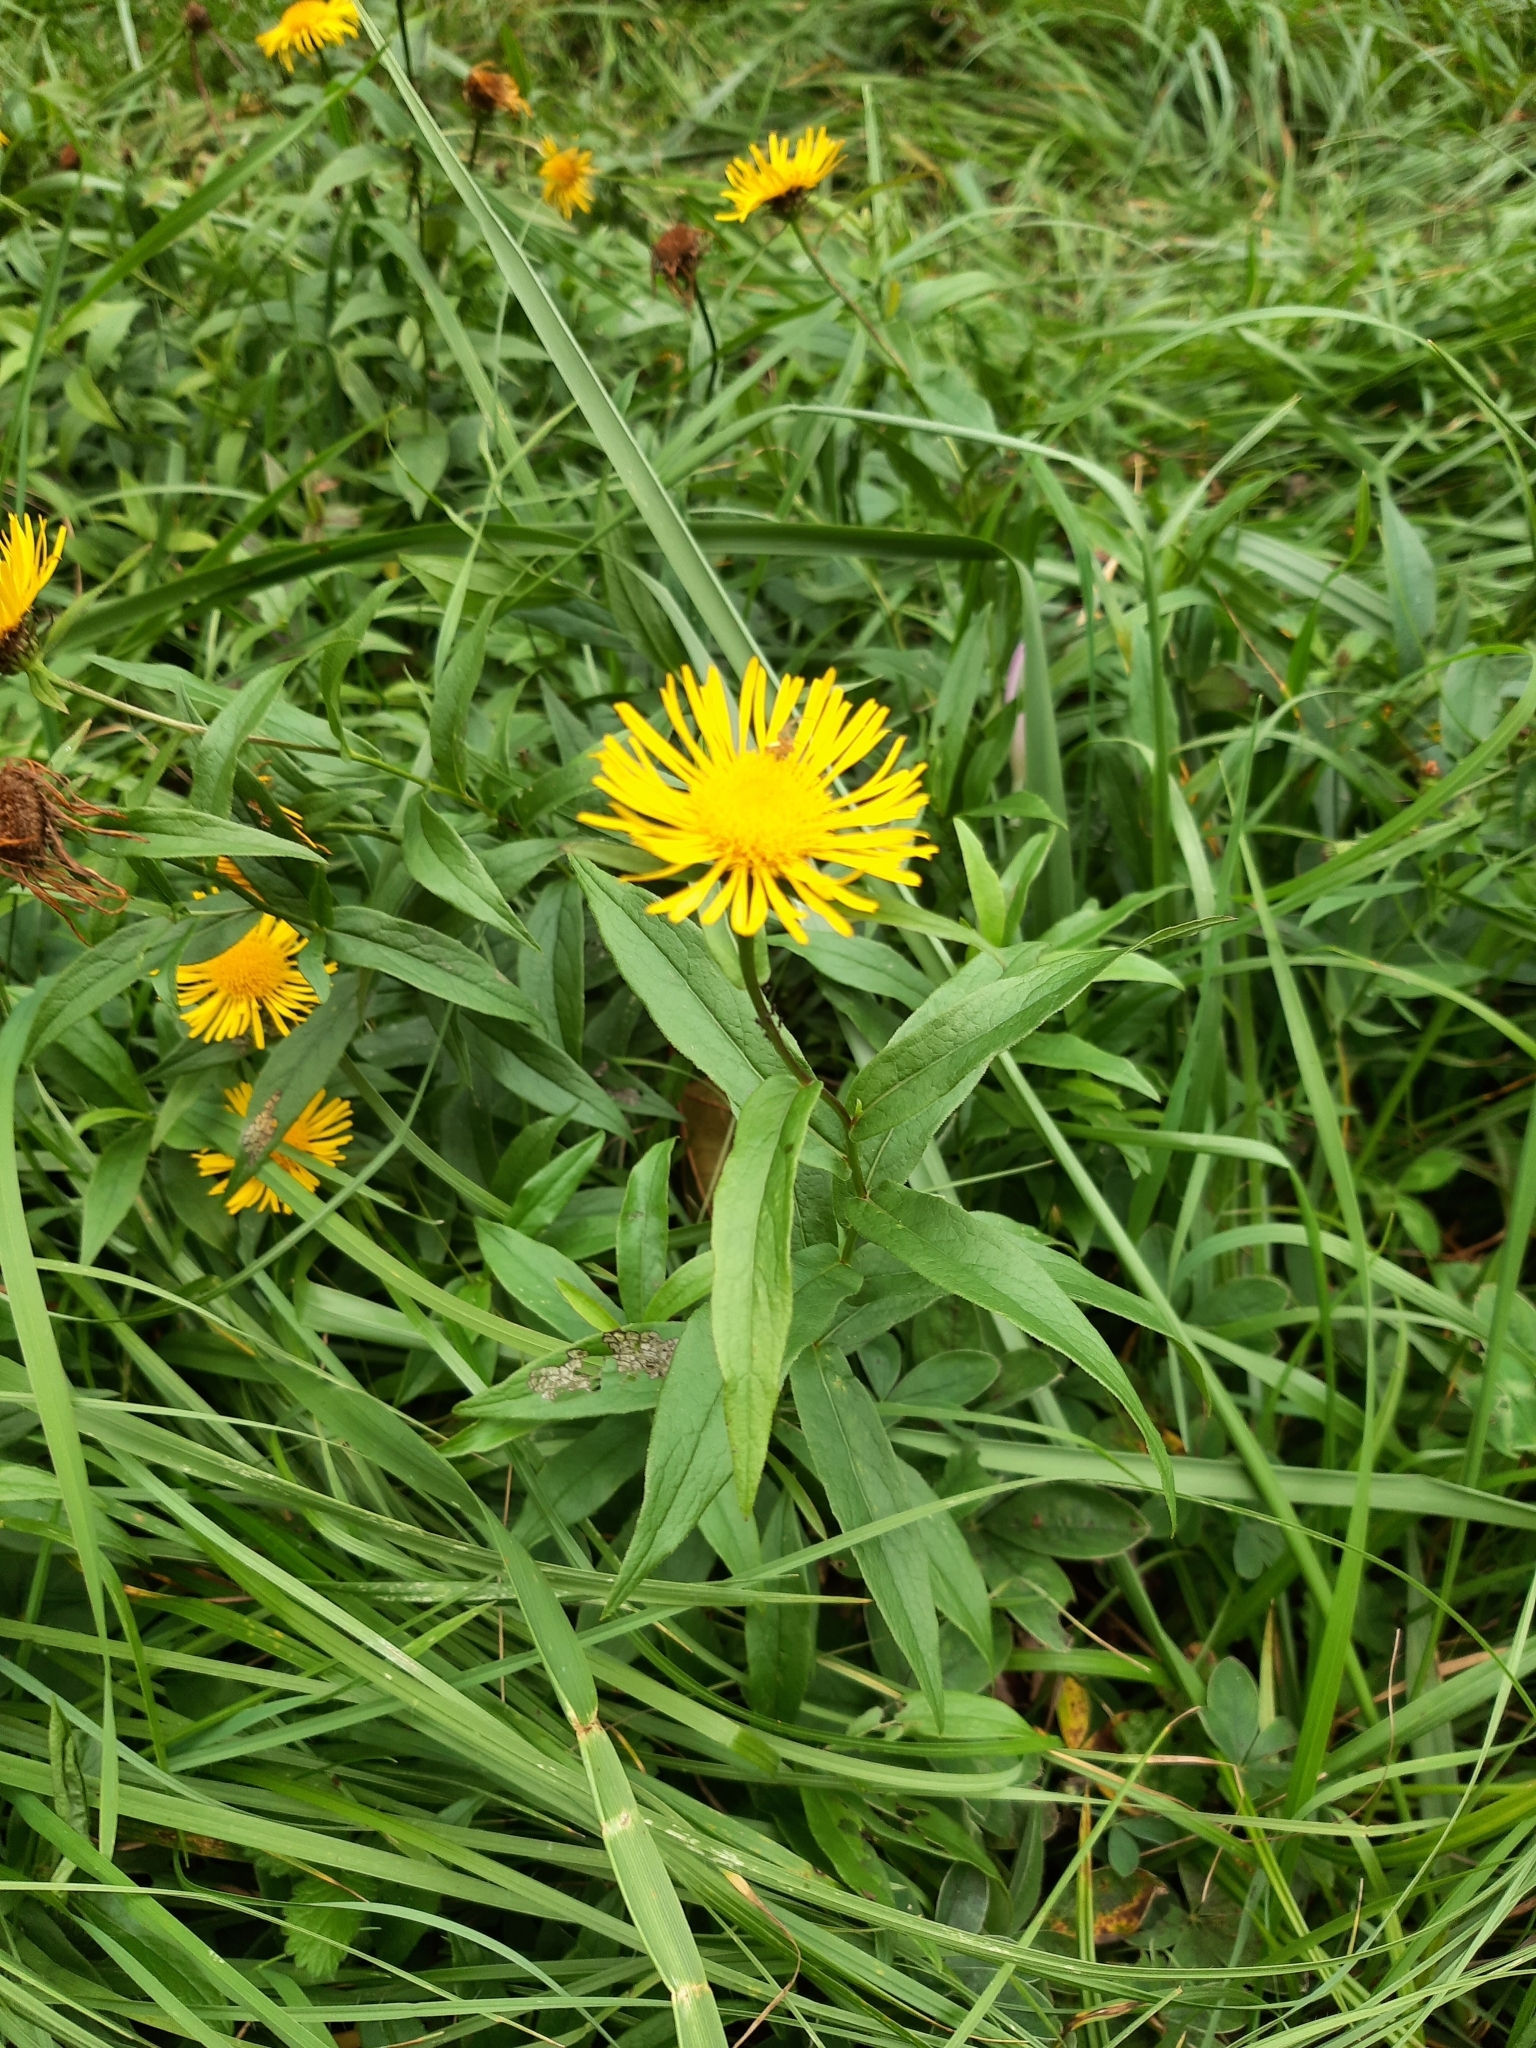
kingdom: Plantae
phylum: Tracheophyta
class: Magnoliopsida
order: Asterales
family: Asteraceae
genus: Pentanema
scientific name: Pentanema salicinum
